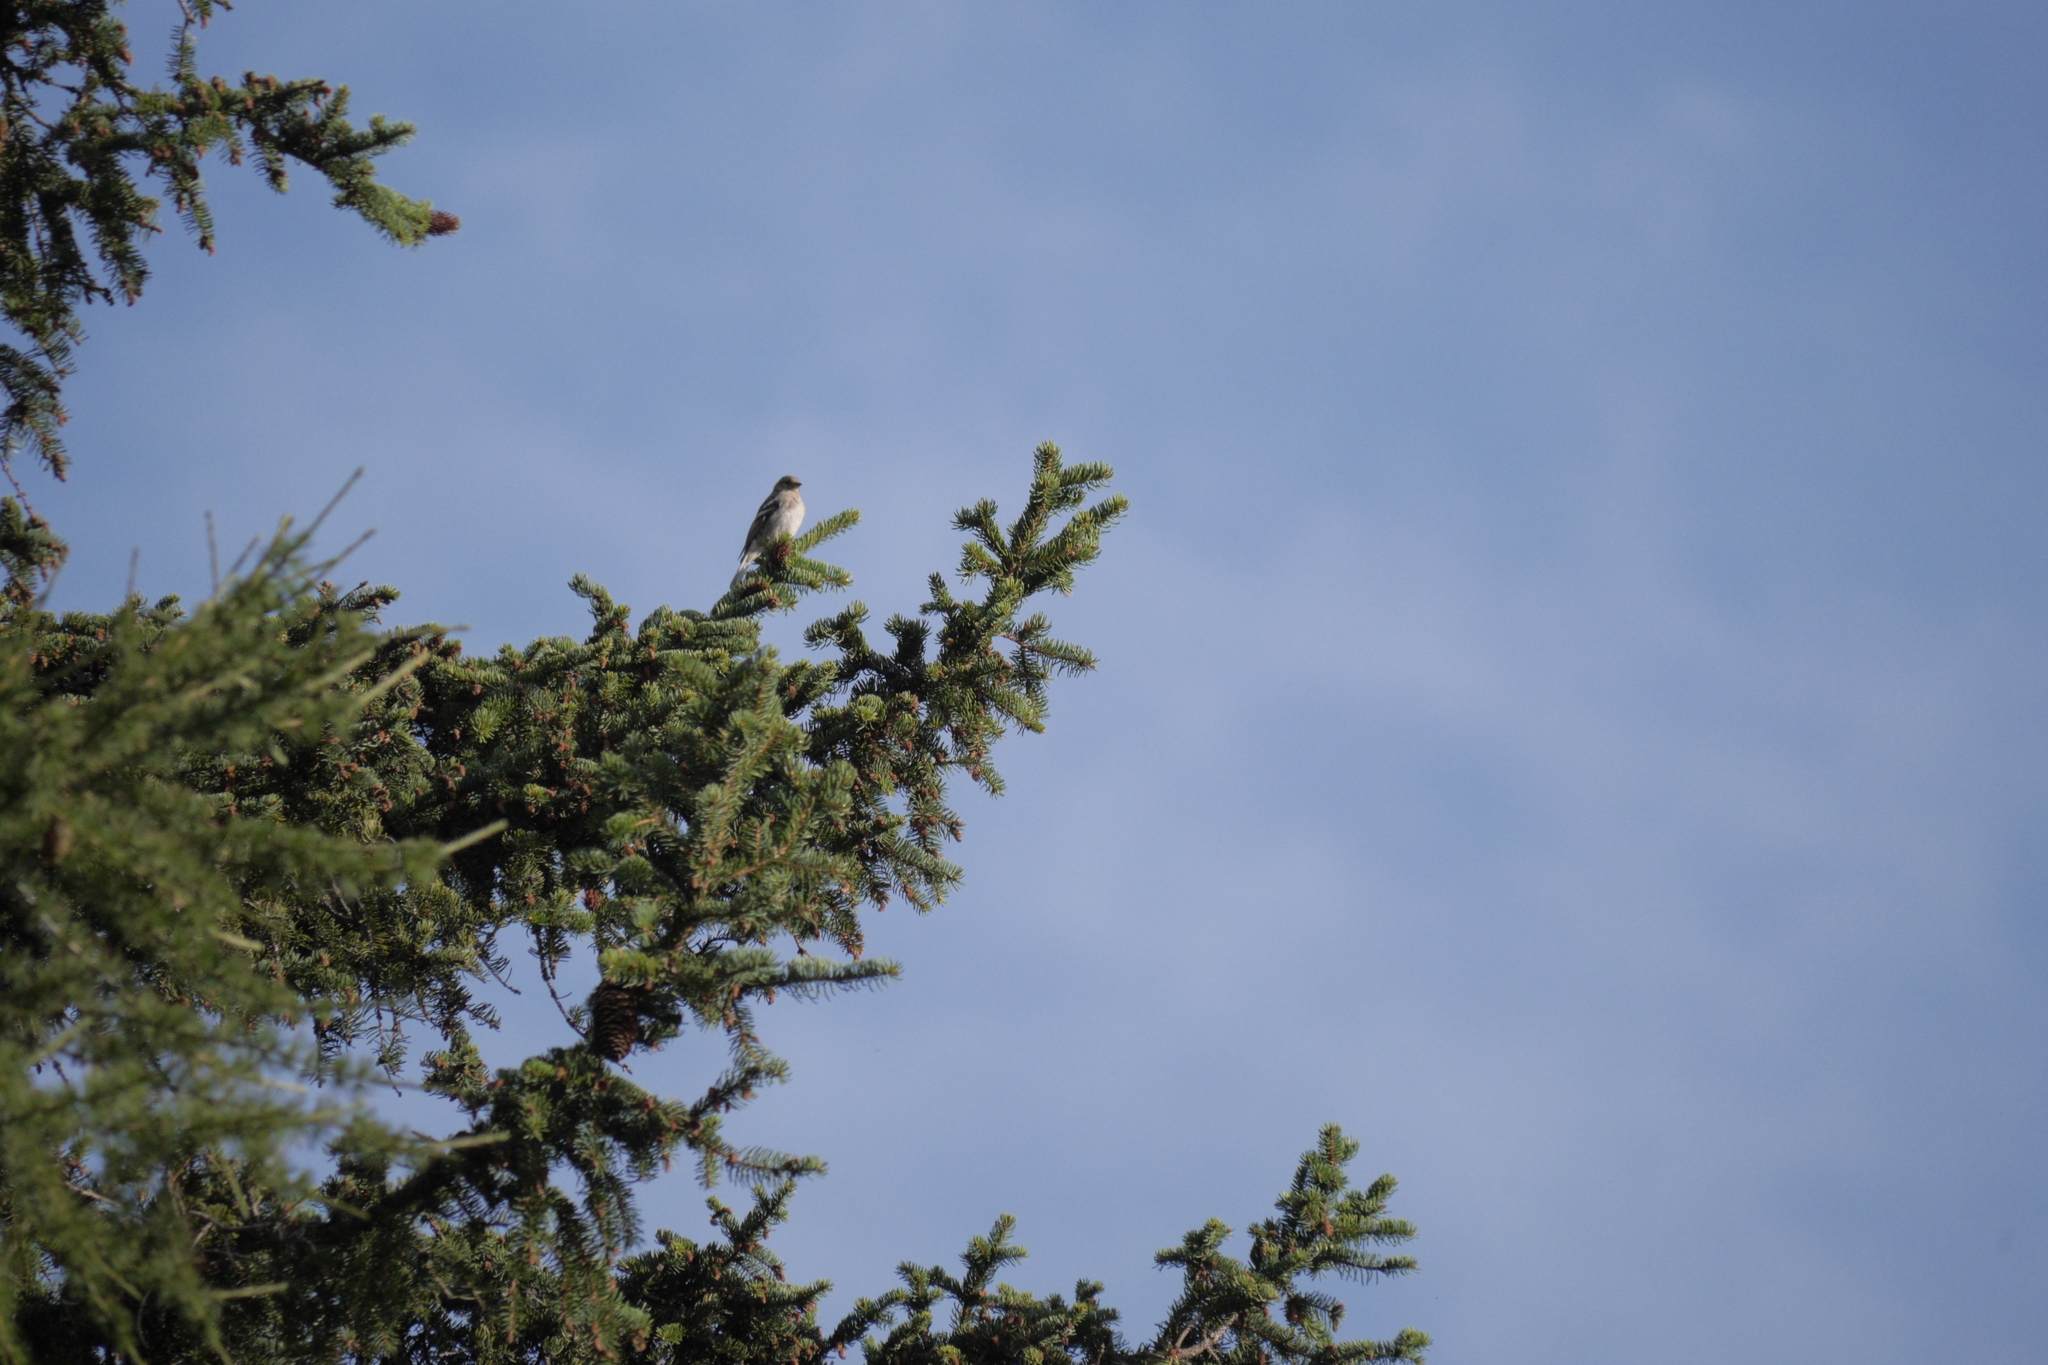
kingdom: Animalia
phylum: Chordata
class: Aves
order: Passeriformes
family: Fringillidae
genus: Fringilla
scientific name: Fringilla coelebs
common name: Common chaffinch
